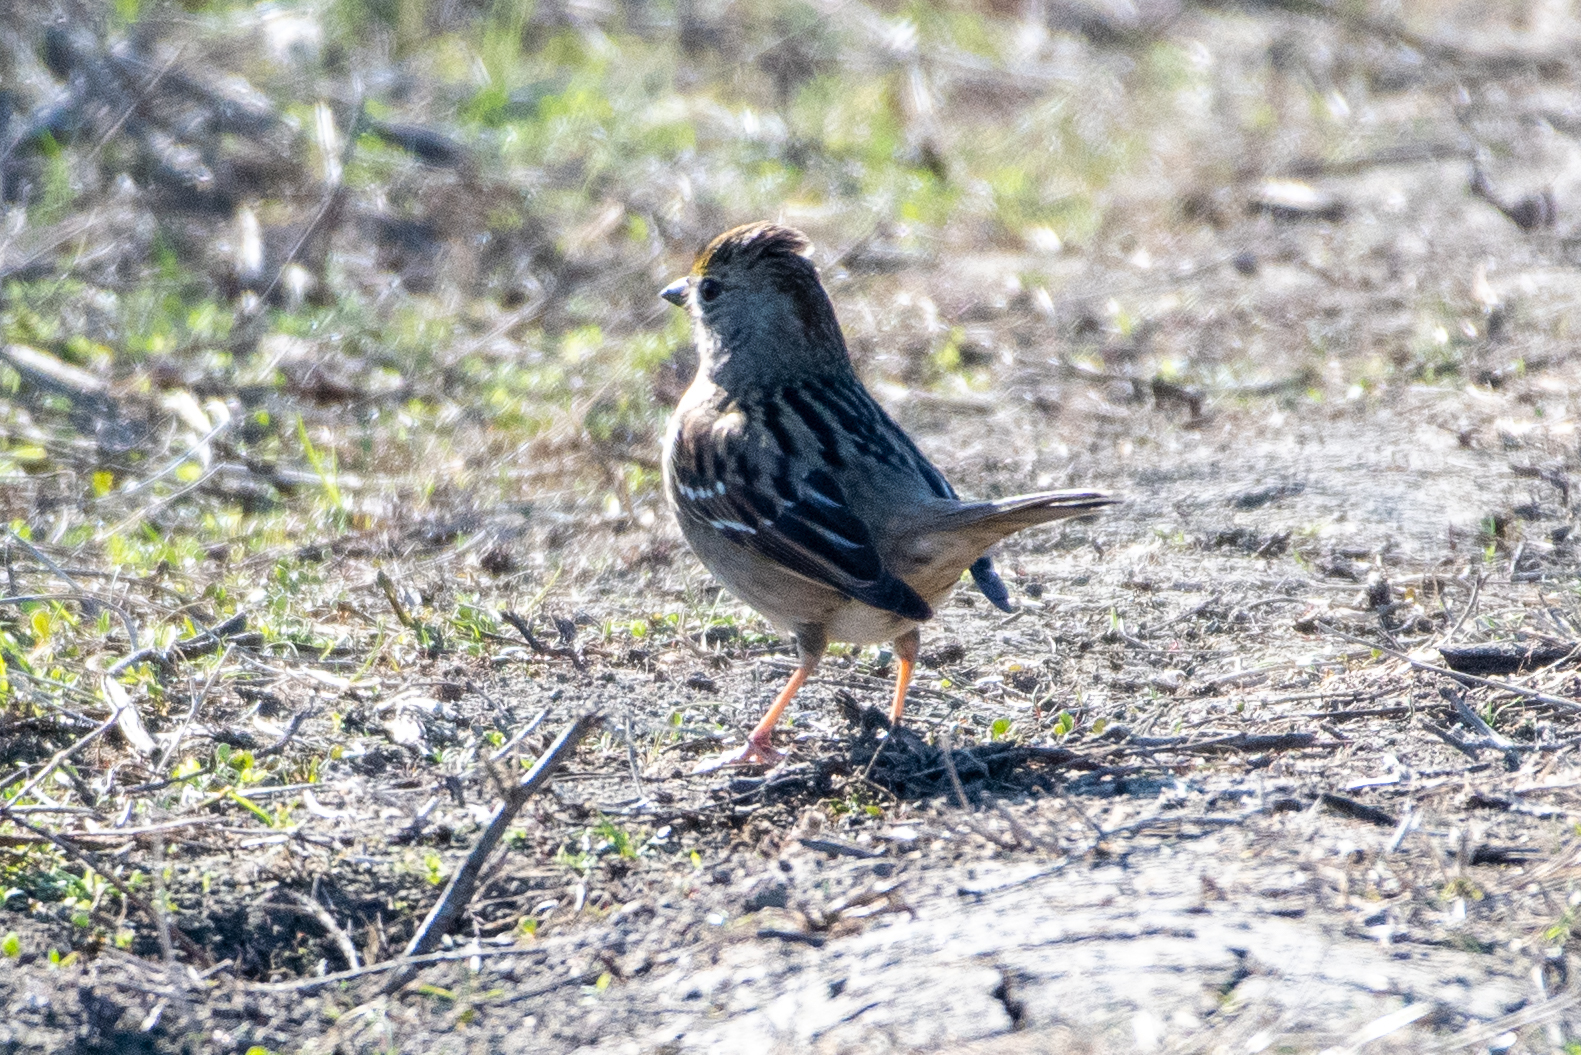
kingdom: Animalia
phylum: Chordata
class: Aves
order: Passeriformes
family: Passerellidae
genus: Zonotrichia
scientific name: Zonotrichia atricapilla
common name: Golden-crowned sparrow
